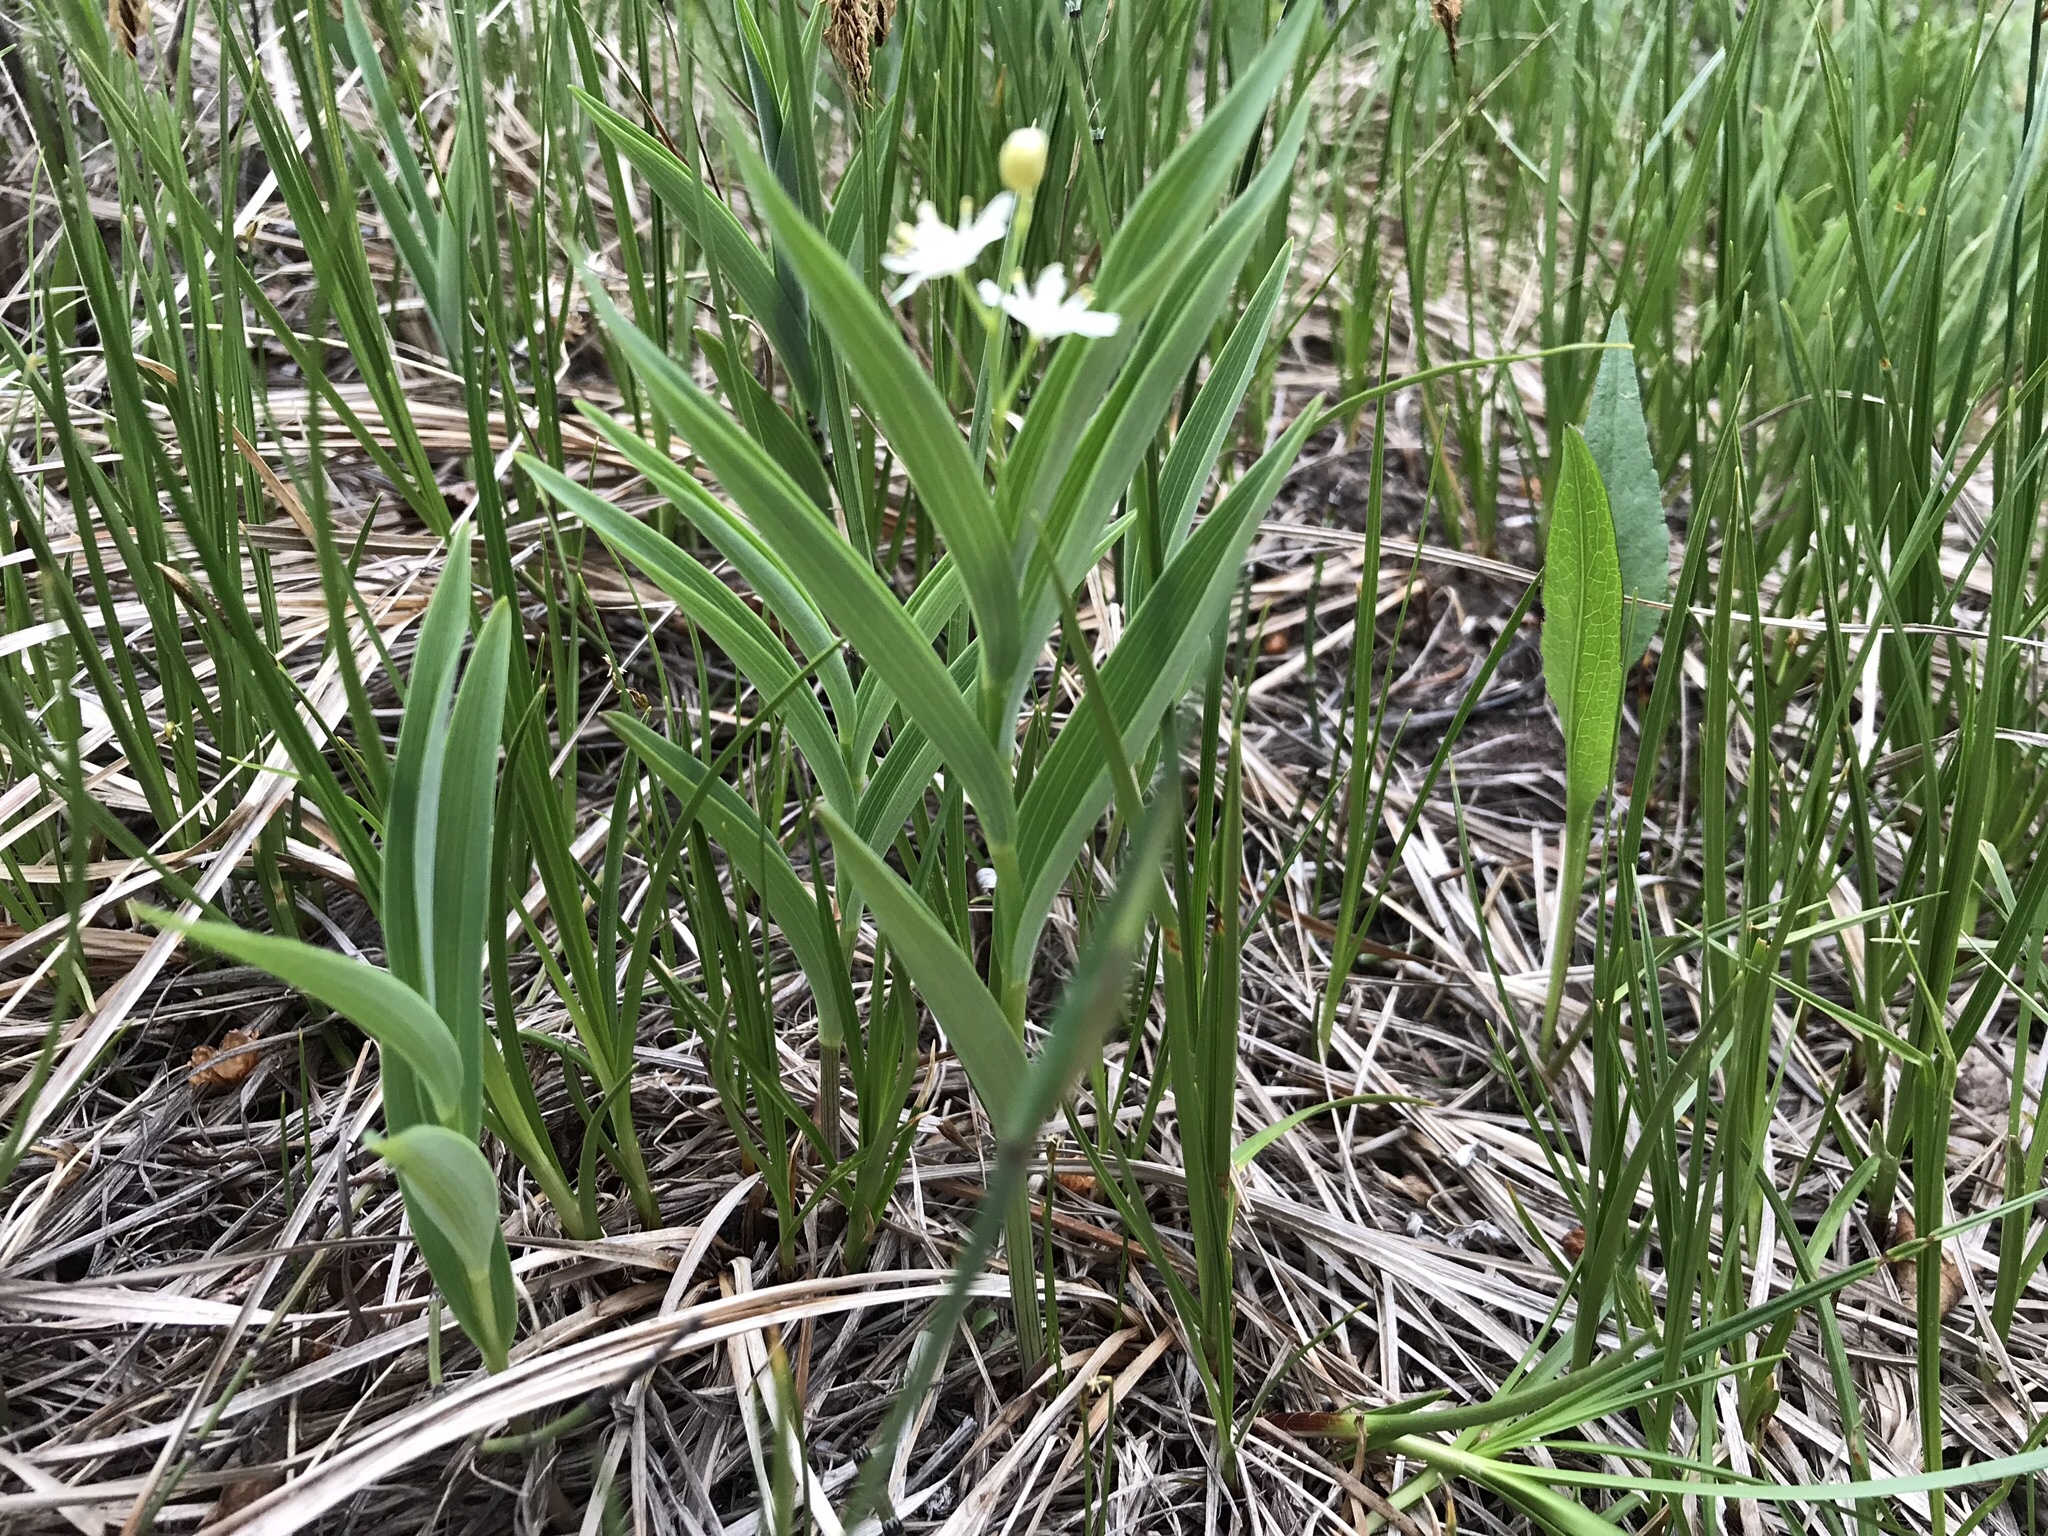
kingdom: Plantae
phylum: Tracheophyta
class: Liliopsida
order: Asparagales
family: Asparagaceae
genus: Maianthemum
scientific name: Maianthemum stellatum
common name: Little false solomon's seal
